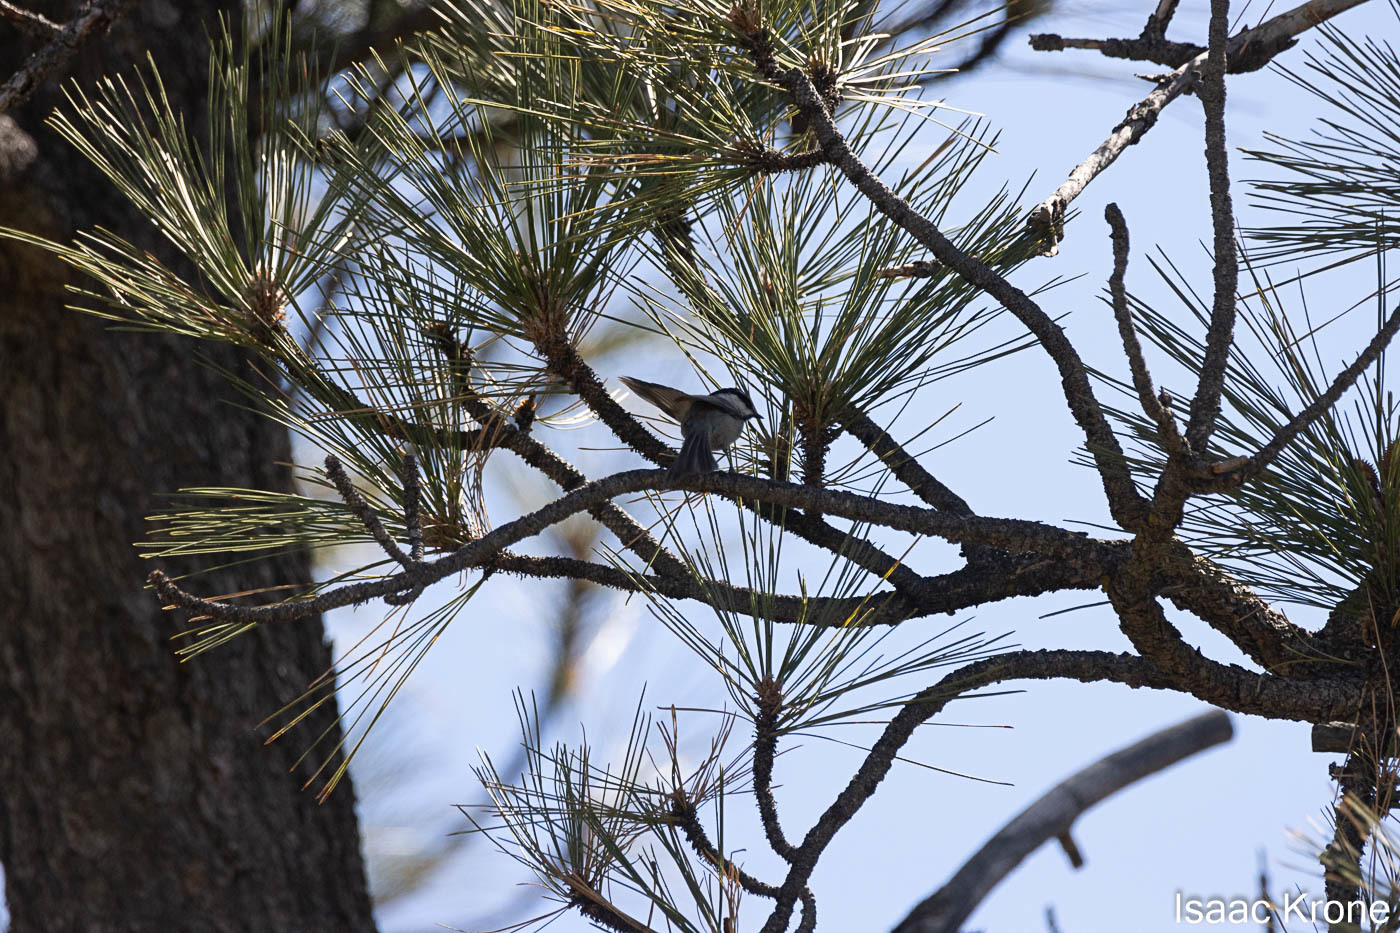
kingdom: Animalia
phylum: Chordata
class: Aves
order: Passeriformes
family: Paridae
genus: Poecile
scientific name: Poecile gambeli
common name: Mountain chickadee
